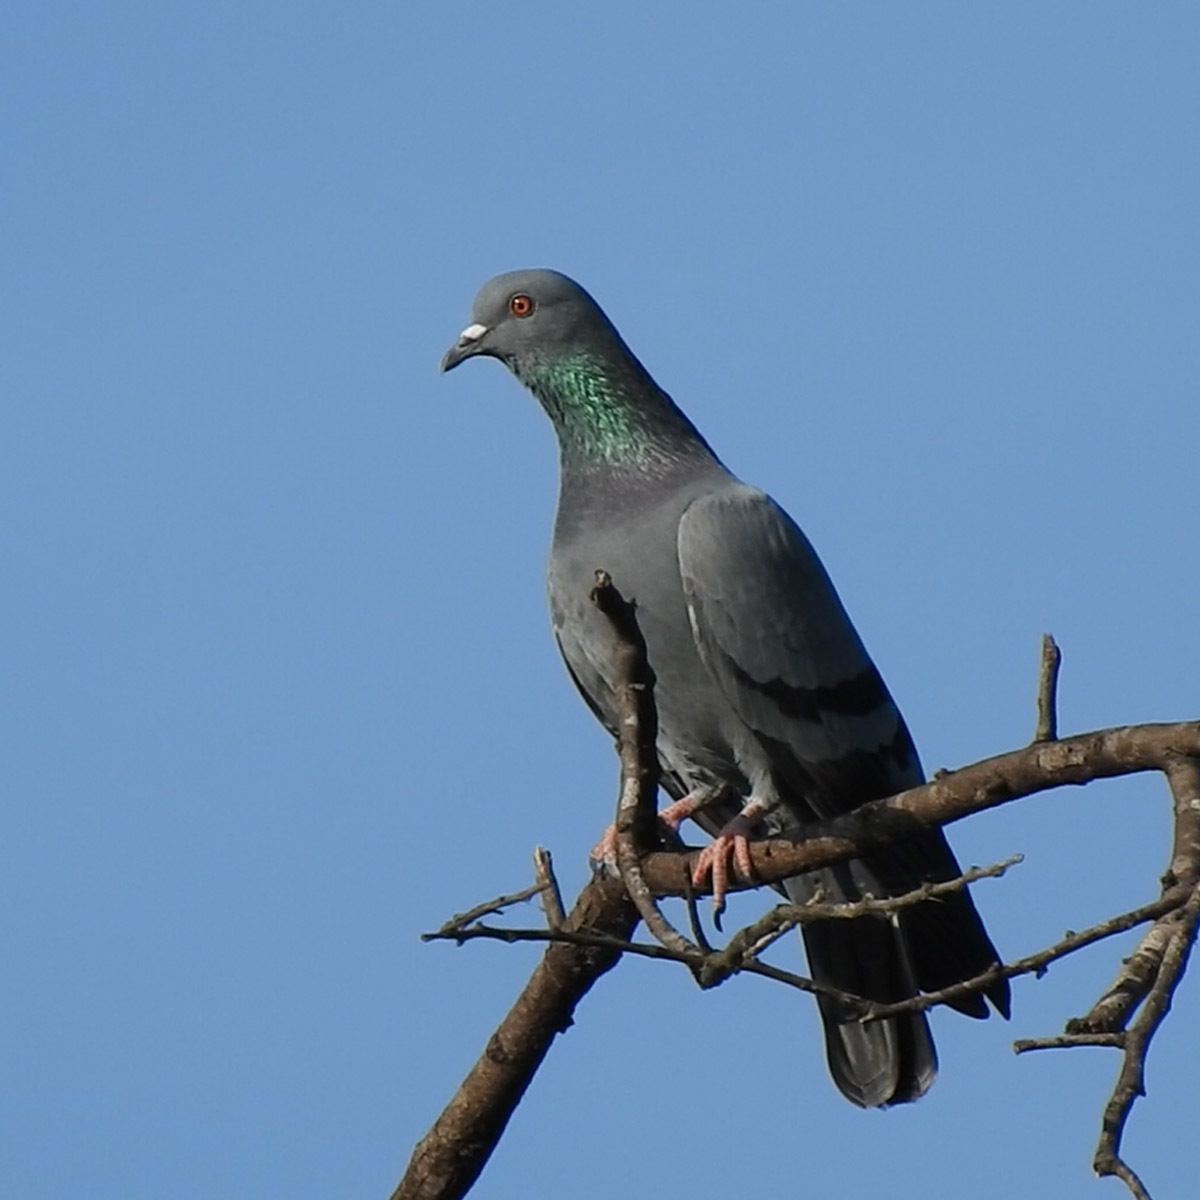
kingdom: Animalia
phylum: Chordata
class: Aves
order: Columbiformes
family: Columbidae
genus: Columba
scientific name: Columba livia
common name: Rock pigeon
